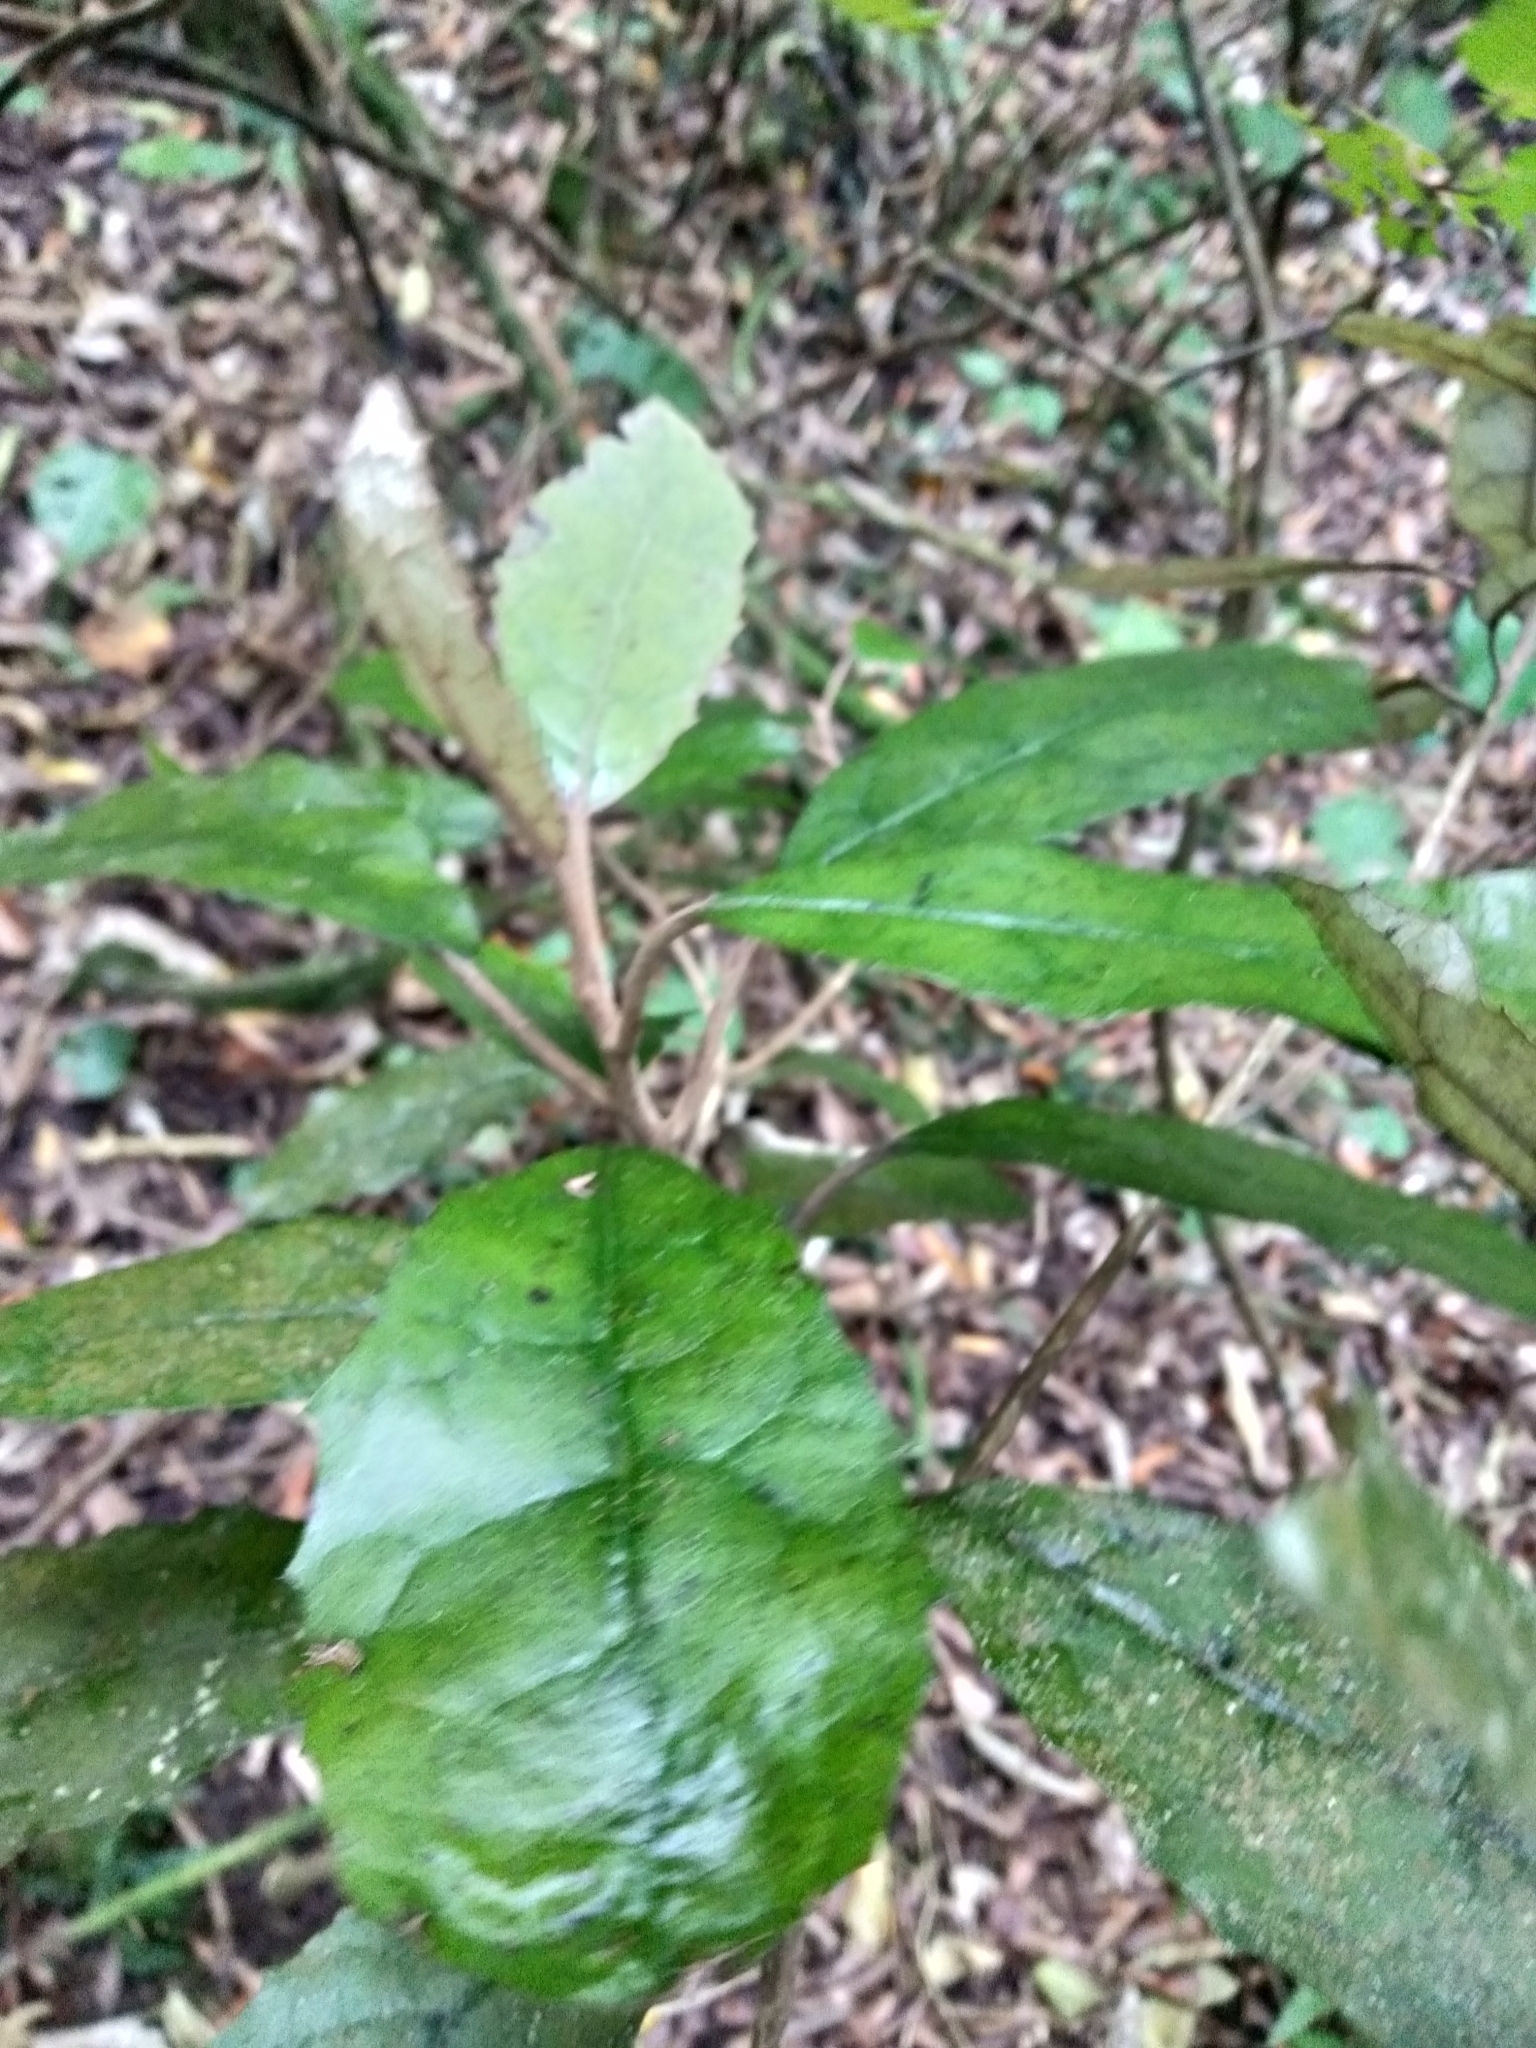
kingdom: Plantae
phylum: Tracheophyta
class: Magnoliopsida
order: Asterales
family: Asteraceae
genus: Olearia
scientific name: Olearia rani
